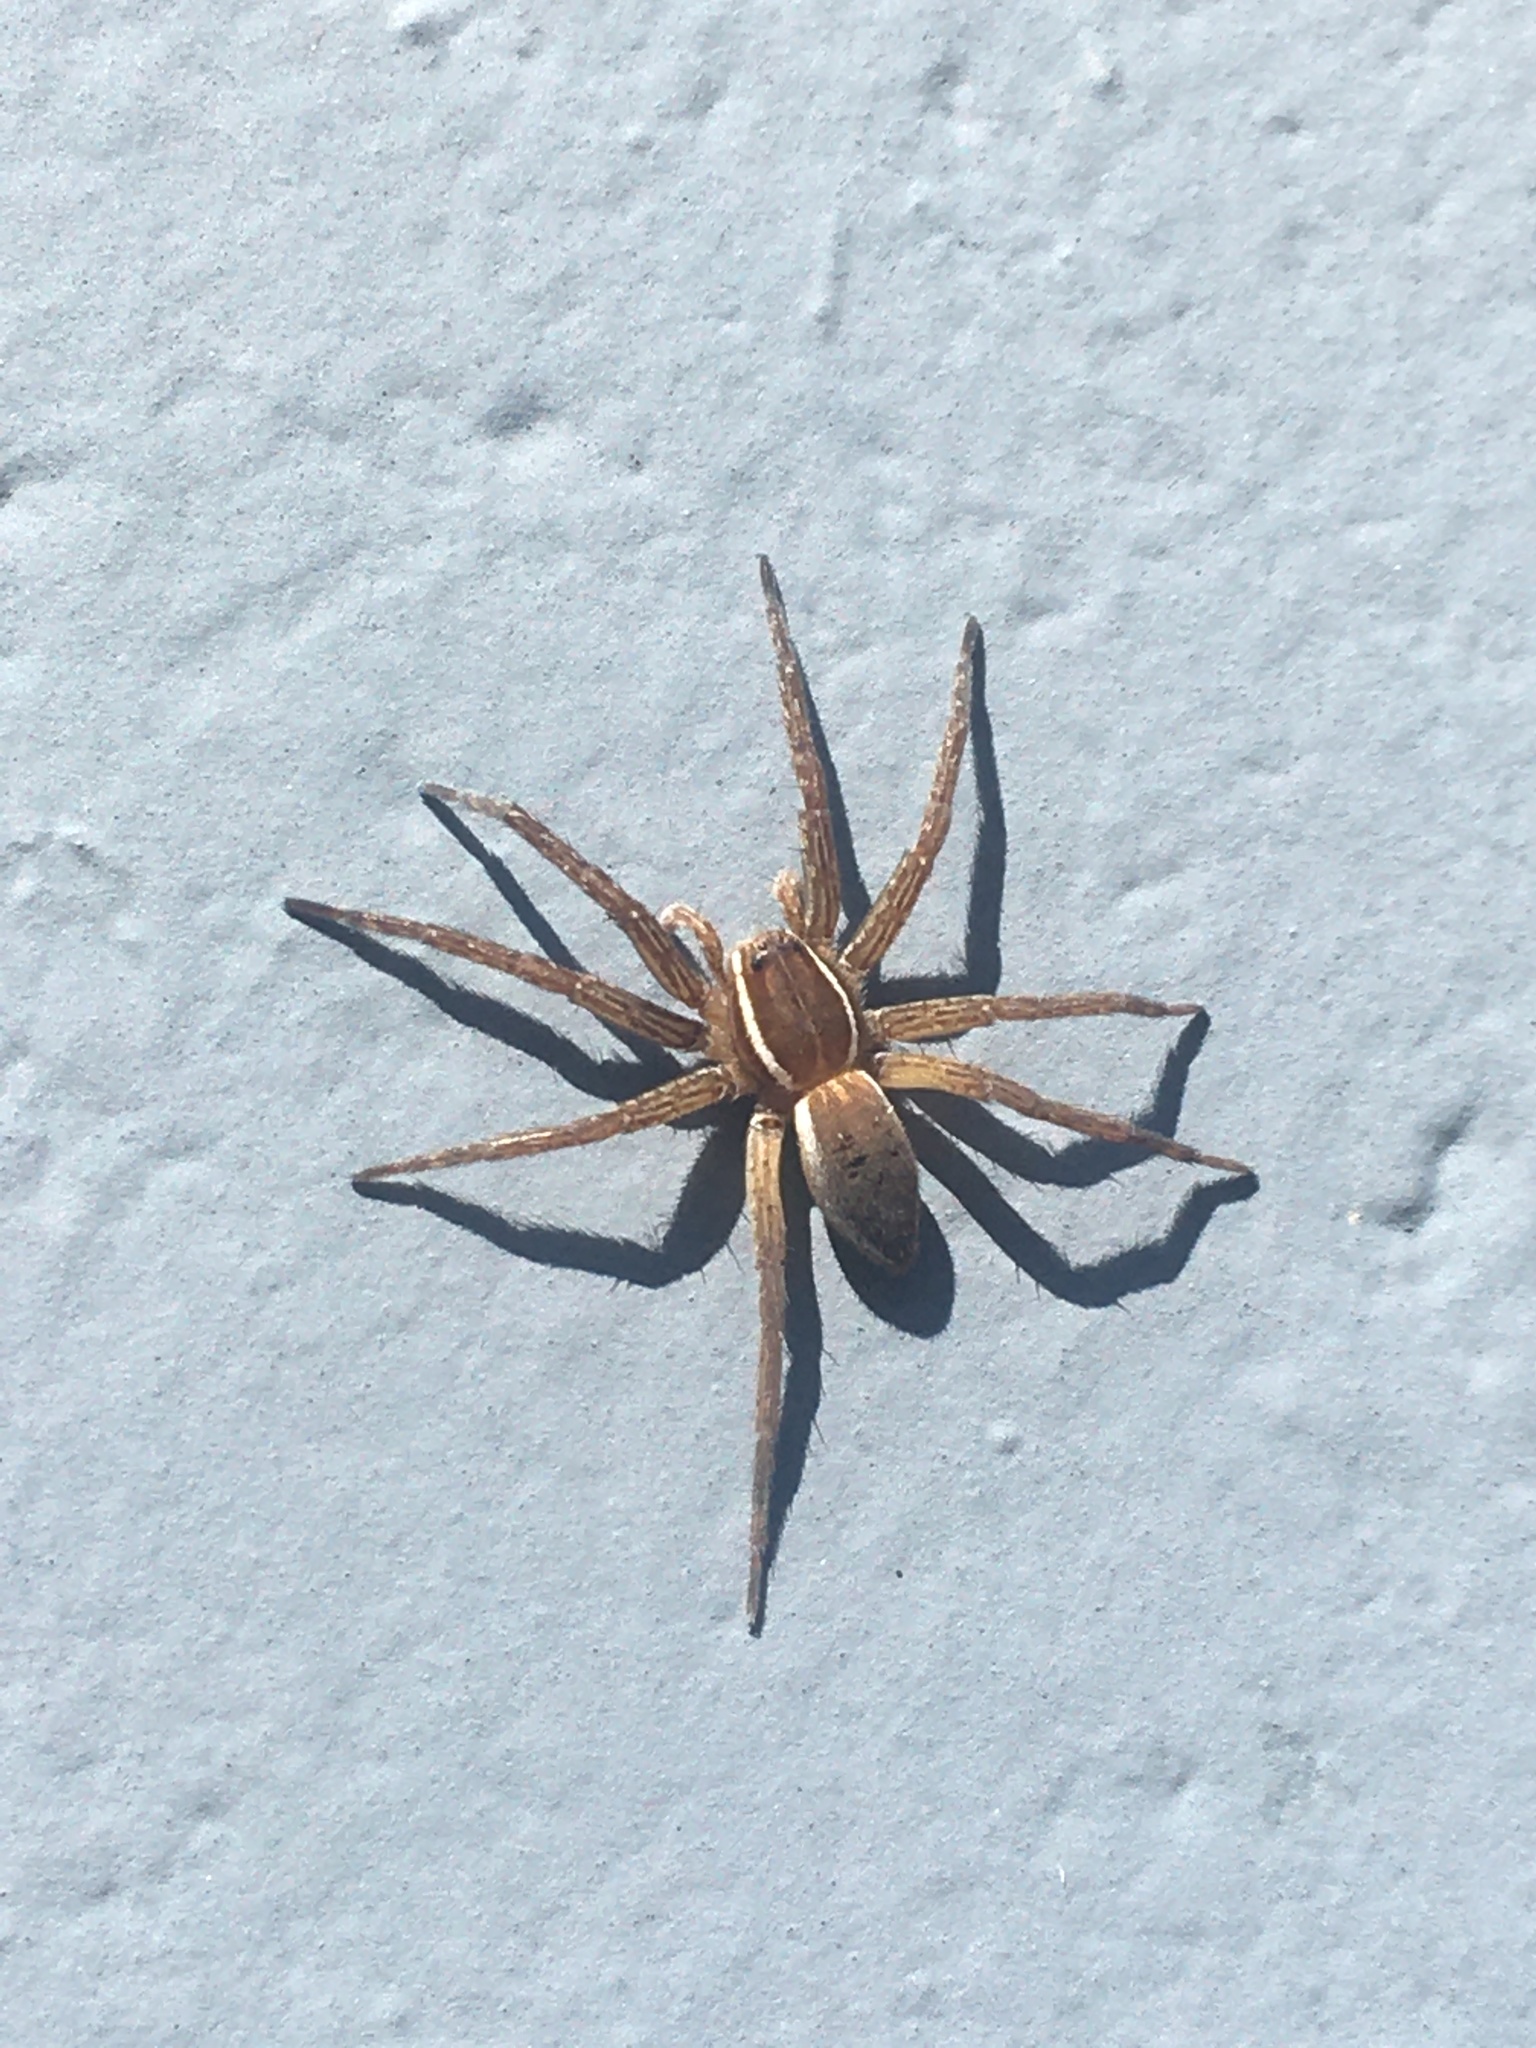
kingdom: Animalia
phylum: Arthropoda
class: Arachnida
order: Araneae
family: Pisauridae
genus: Dolomedes
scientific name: Dolomedes triton
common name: Six-spotted fishing spider
